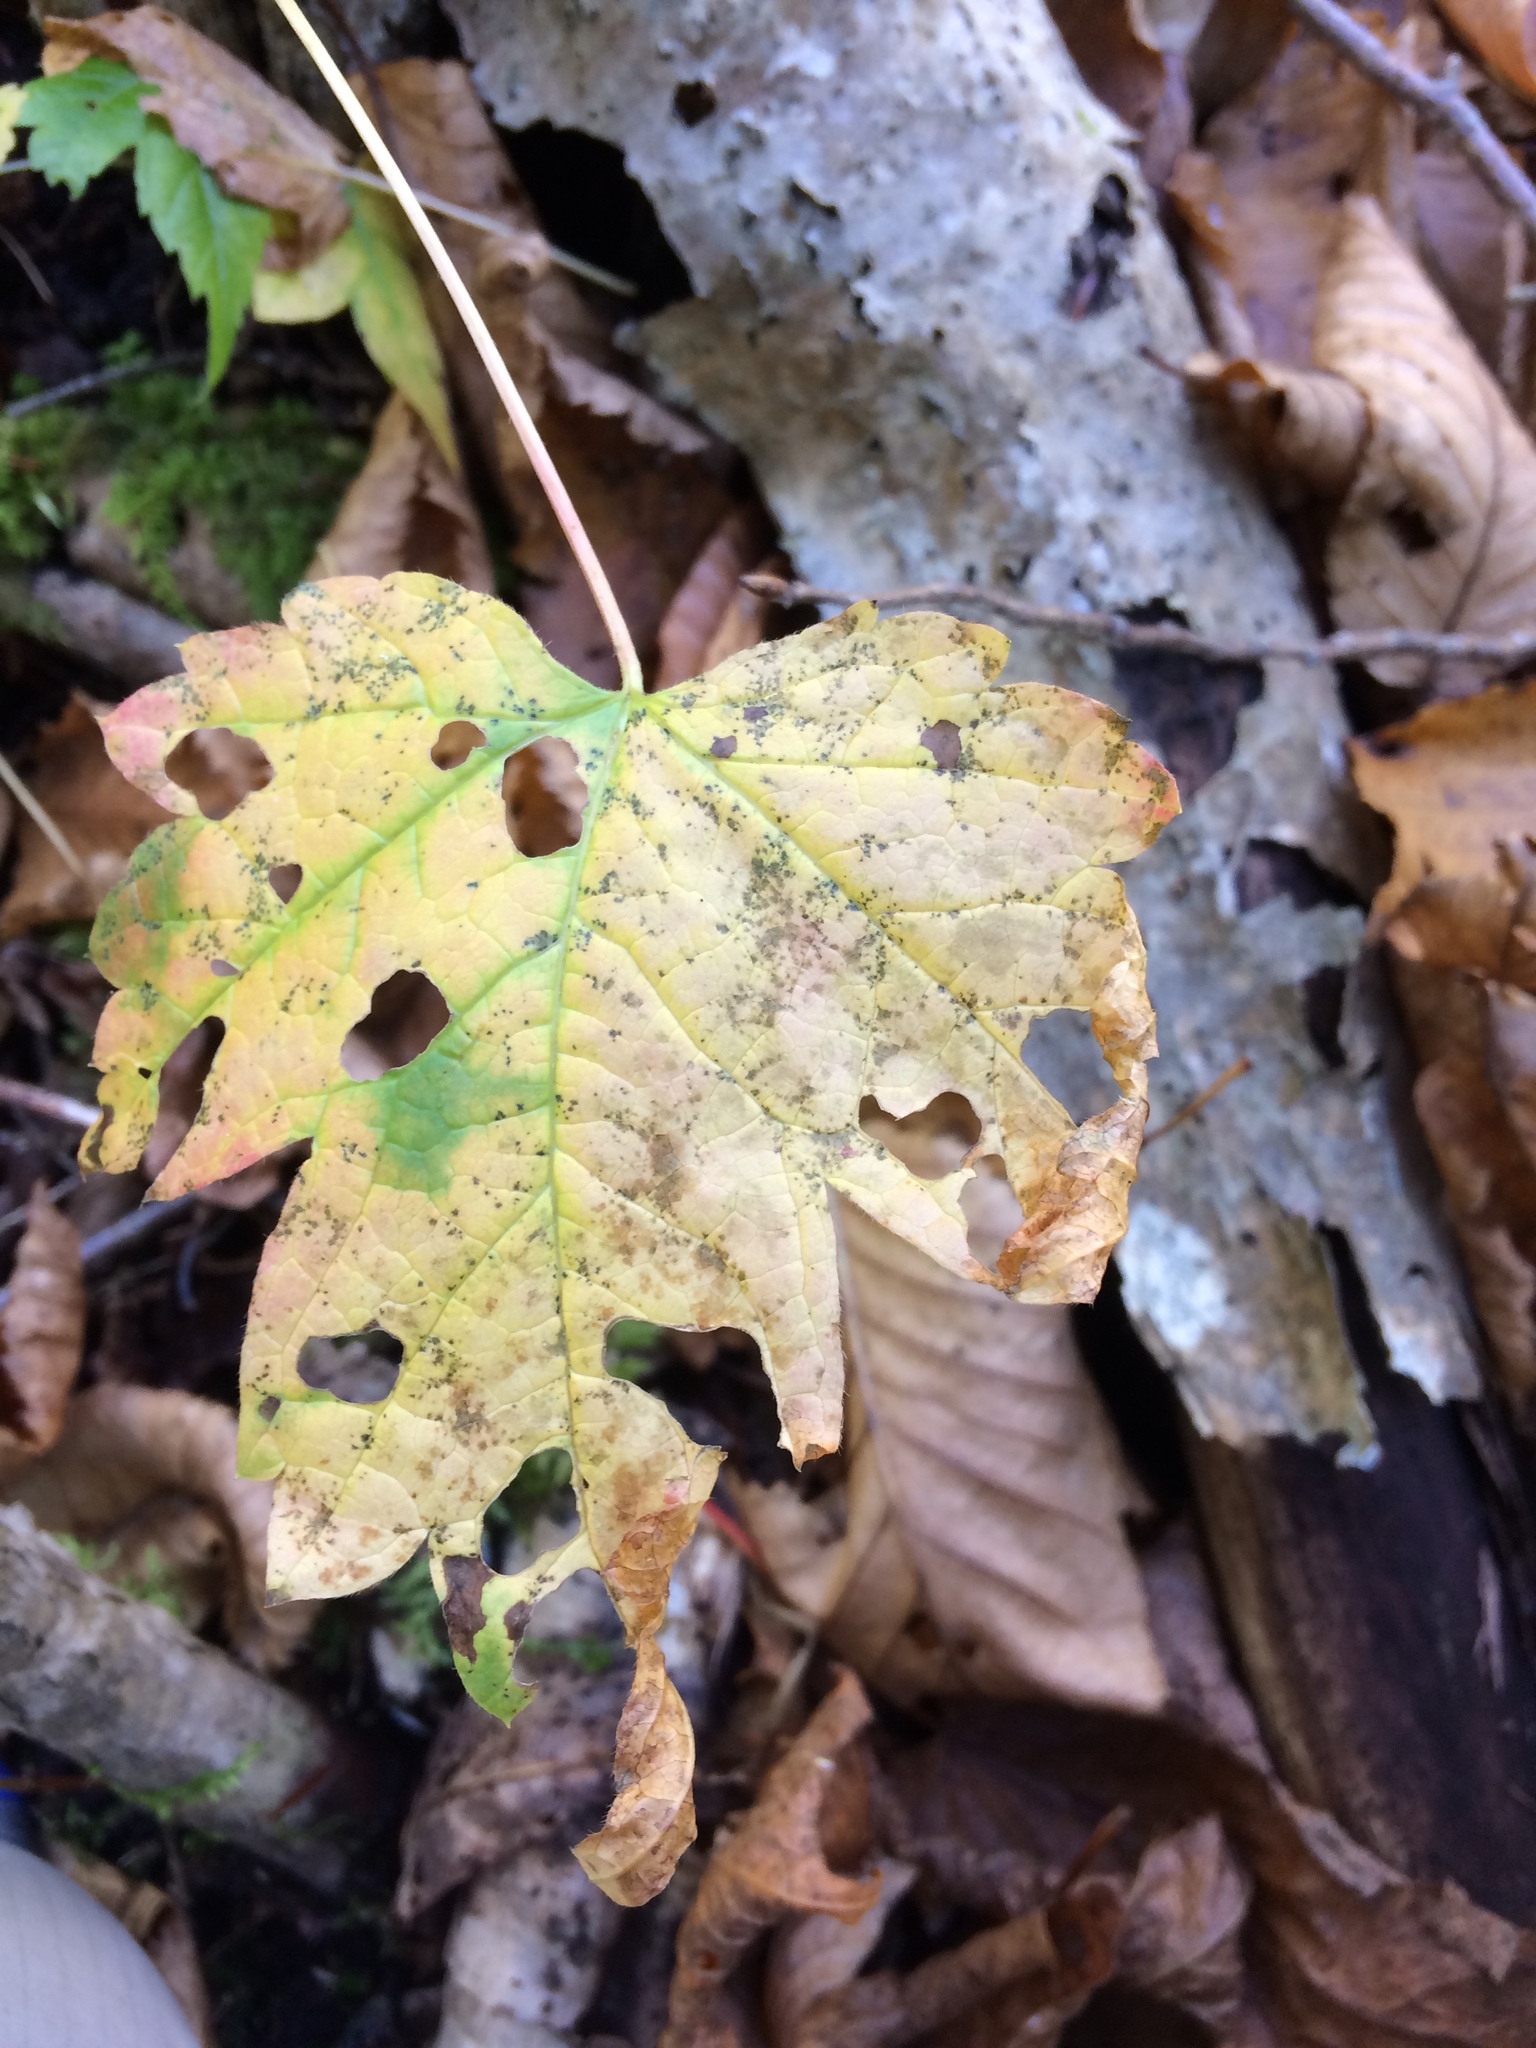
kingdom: Animalia
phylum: Arthropoda
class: Insecta
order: Lepidoptera
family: Incurvariidae
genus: Paraclemensia
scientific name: Paraclemensia acerifoliella
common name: Maple leafcutter
